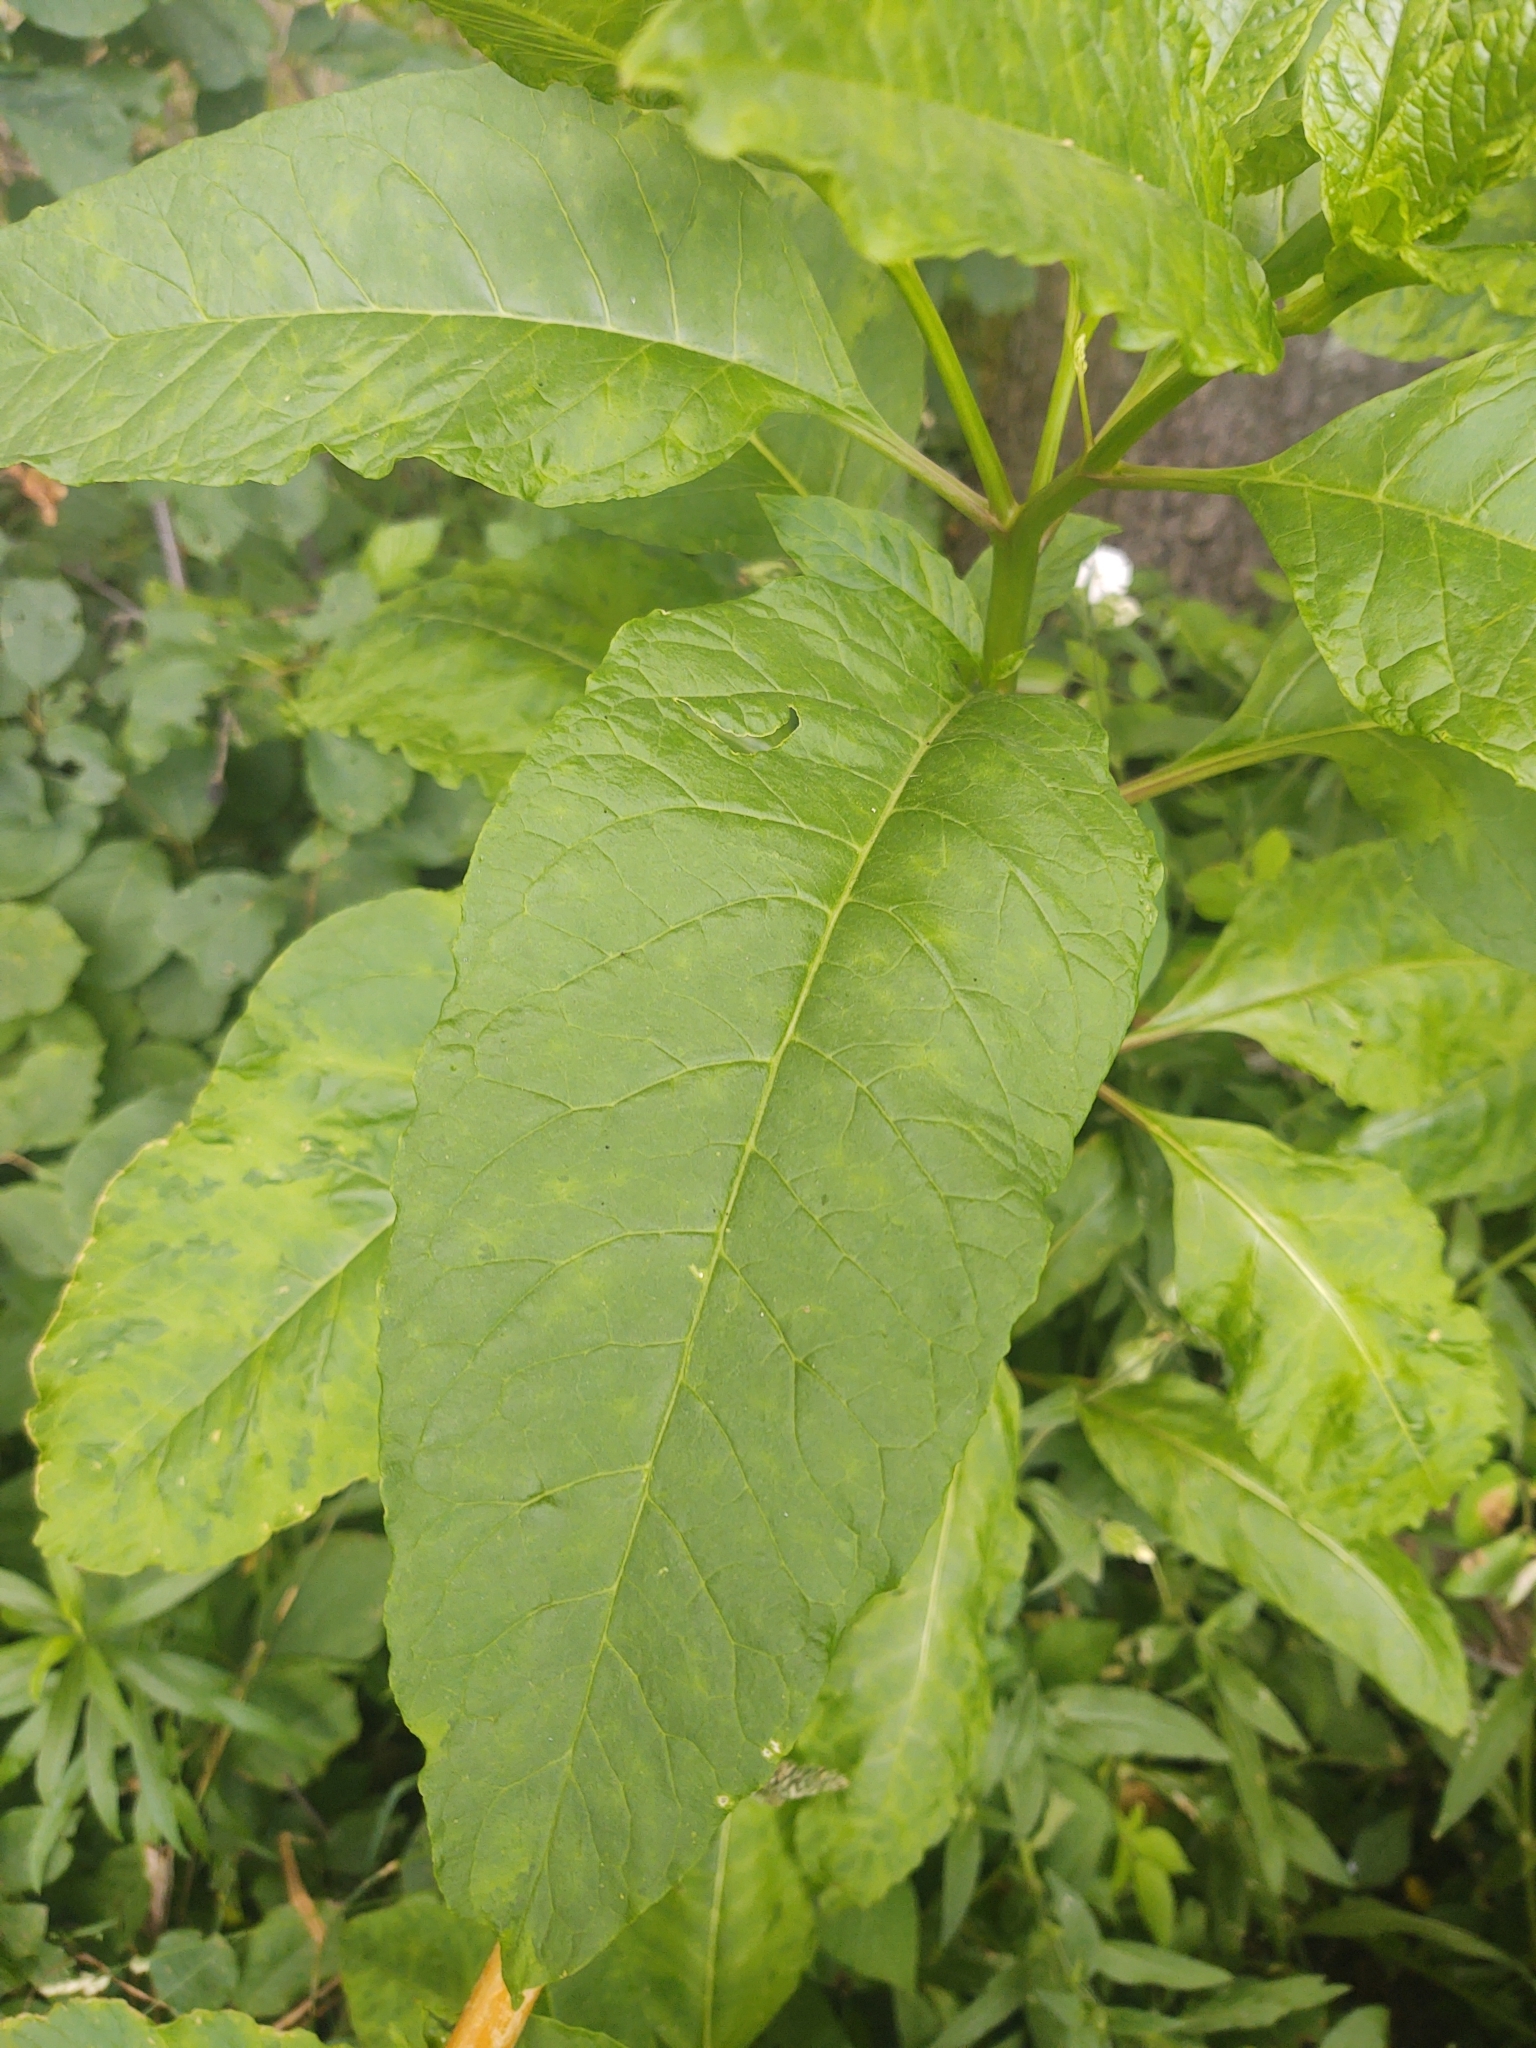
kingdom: Plantae
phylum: Tracheophyta
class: Magnoliopsida
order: Caryophyllales
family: Phytolaccaceae
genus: Phytolacca
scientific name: Phytolacca americana
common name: American pokeweed
